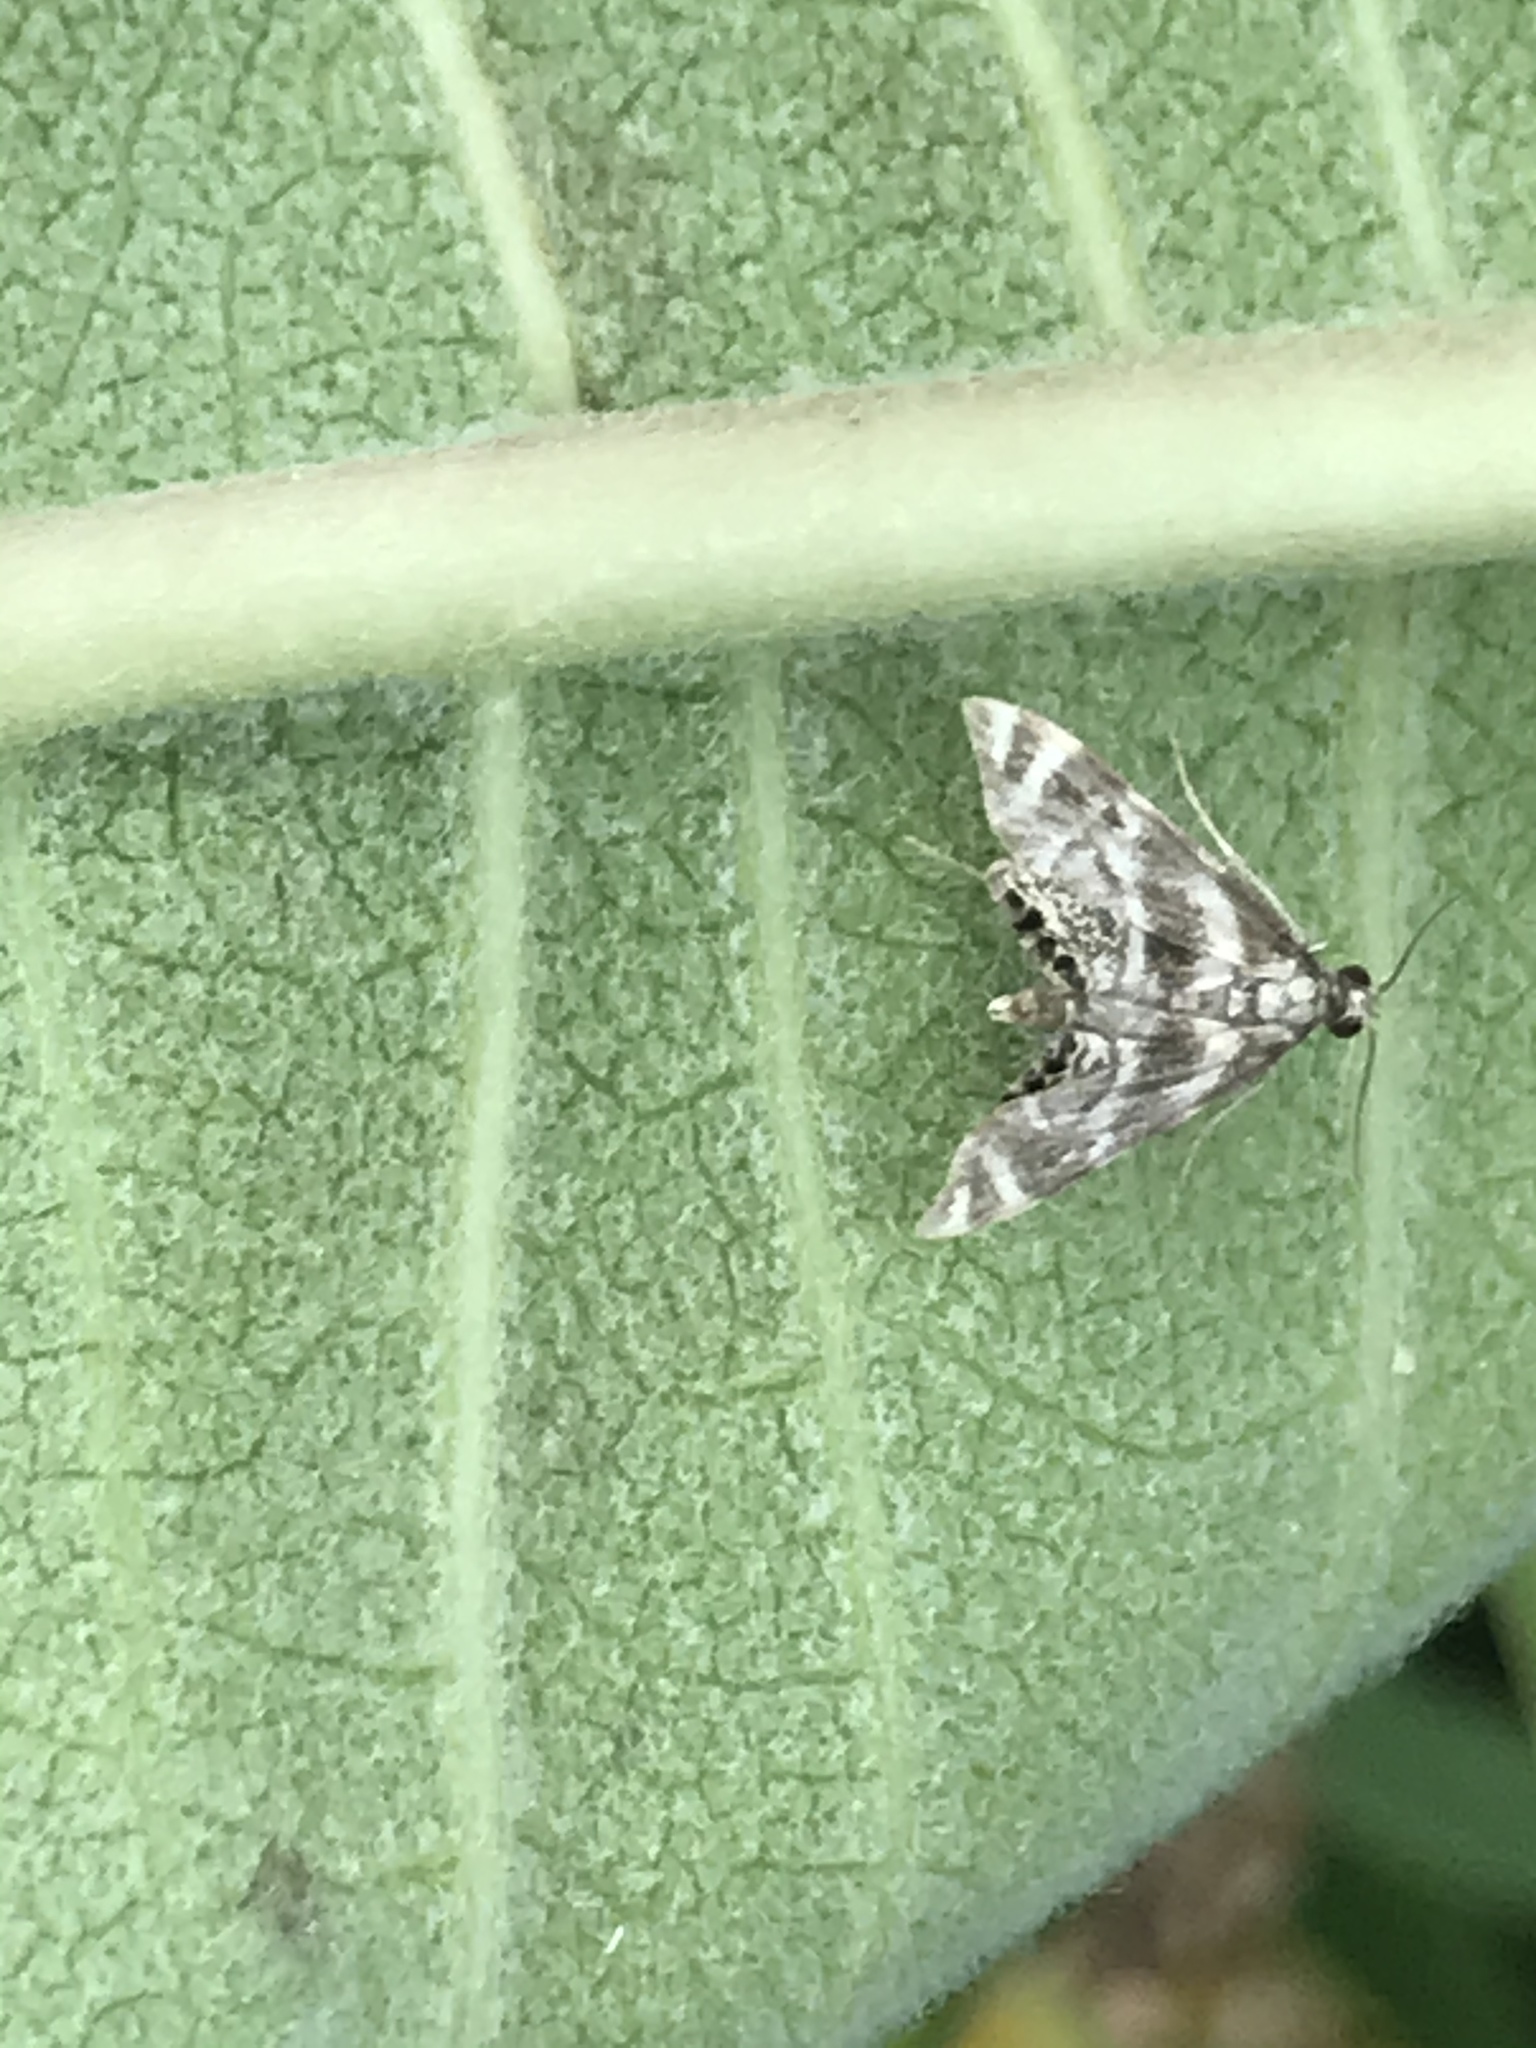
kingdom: Animalia
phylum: Arthropoda
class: Insecta
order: Lepidoptera
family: Crambidae
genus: Petrophila
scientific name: Petrophila canadensis
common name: Canadian petrophila
